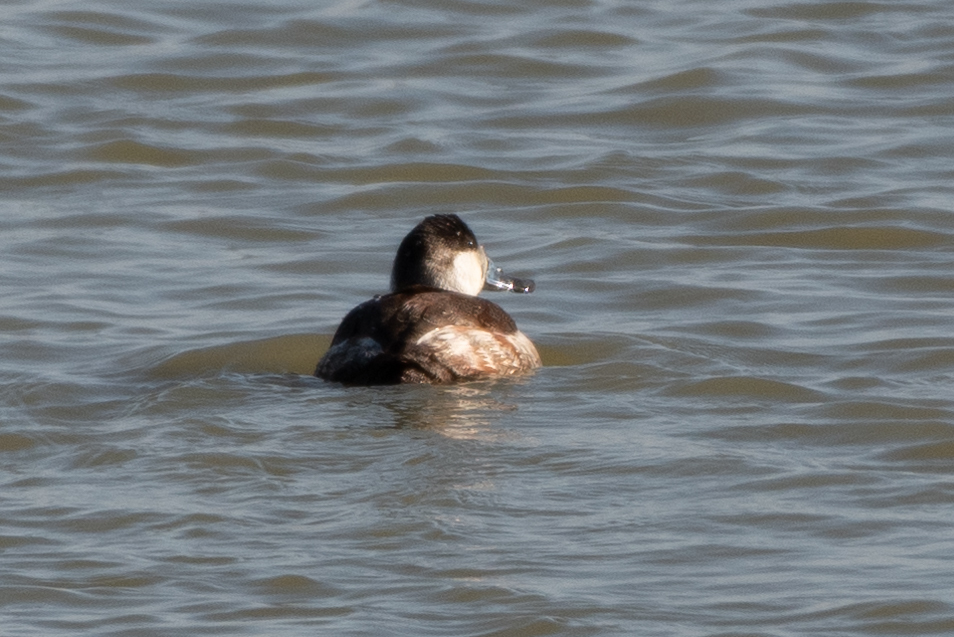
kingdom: Animalia
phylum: Chordata
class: Aves
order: Anseriformes
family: Anatidae
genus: Oxyura
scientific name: Oxyura jamaicensis
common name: Ruddy duck
